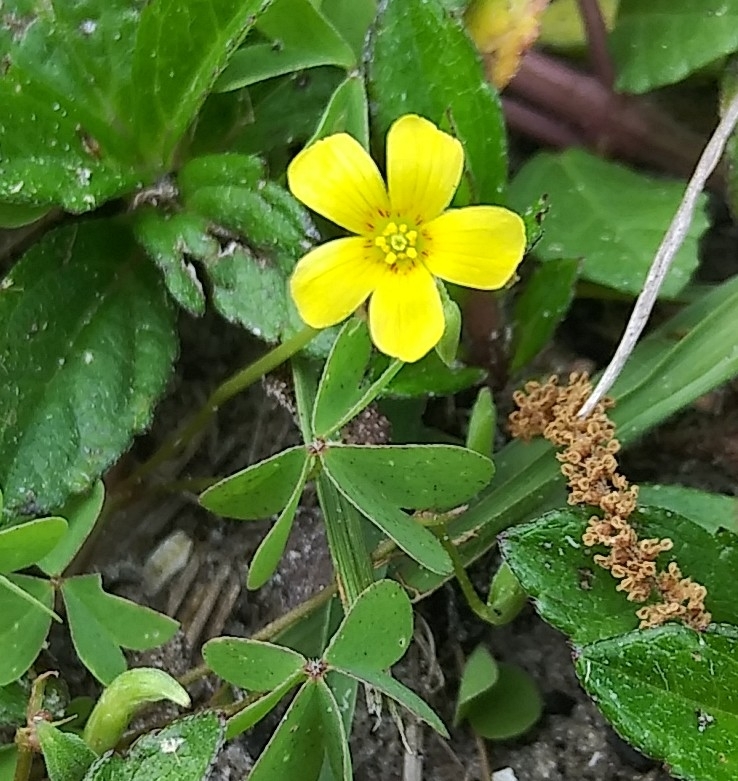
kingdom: Plantae
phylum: Tracheophyta
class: Magnoliopsida
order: Oxalidales
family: Oxalidaceae
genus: Oxalis
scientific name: Oxalis corniculata
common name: Procumbent yellow-sorrel
